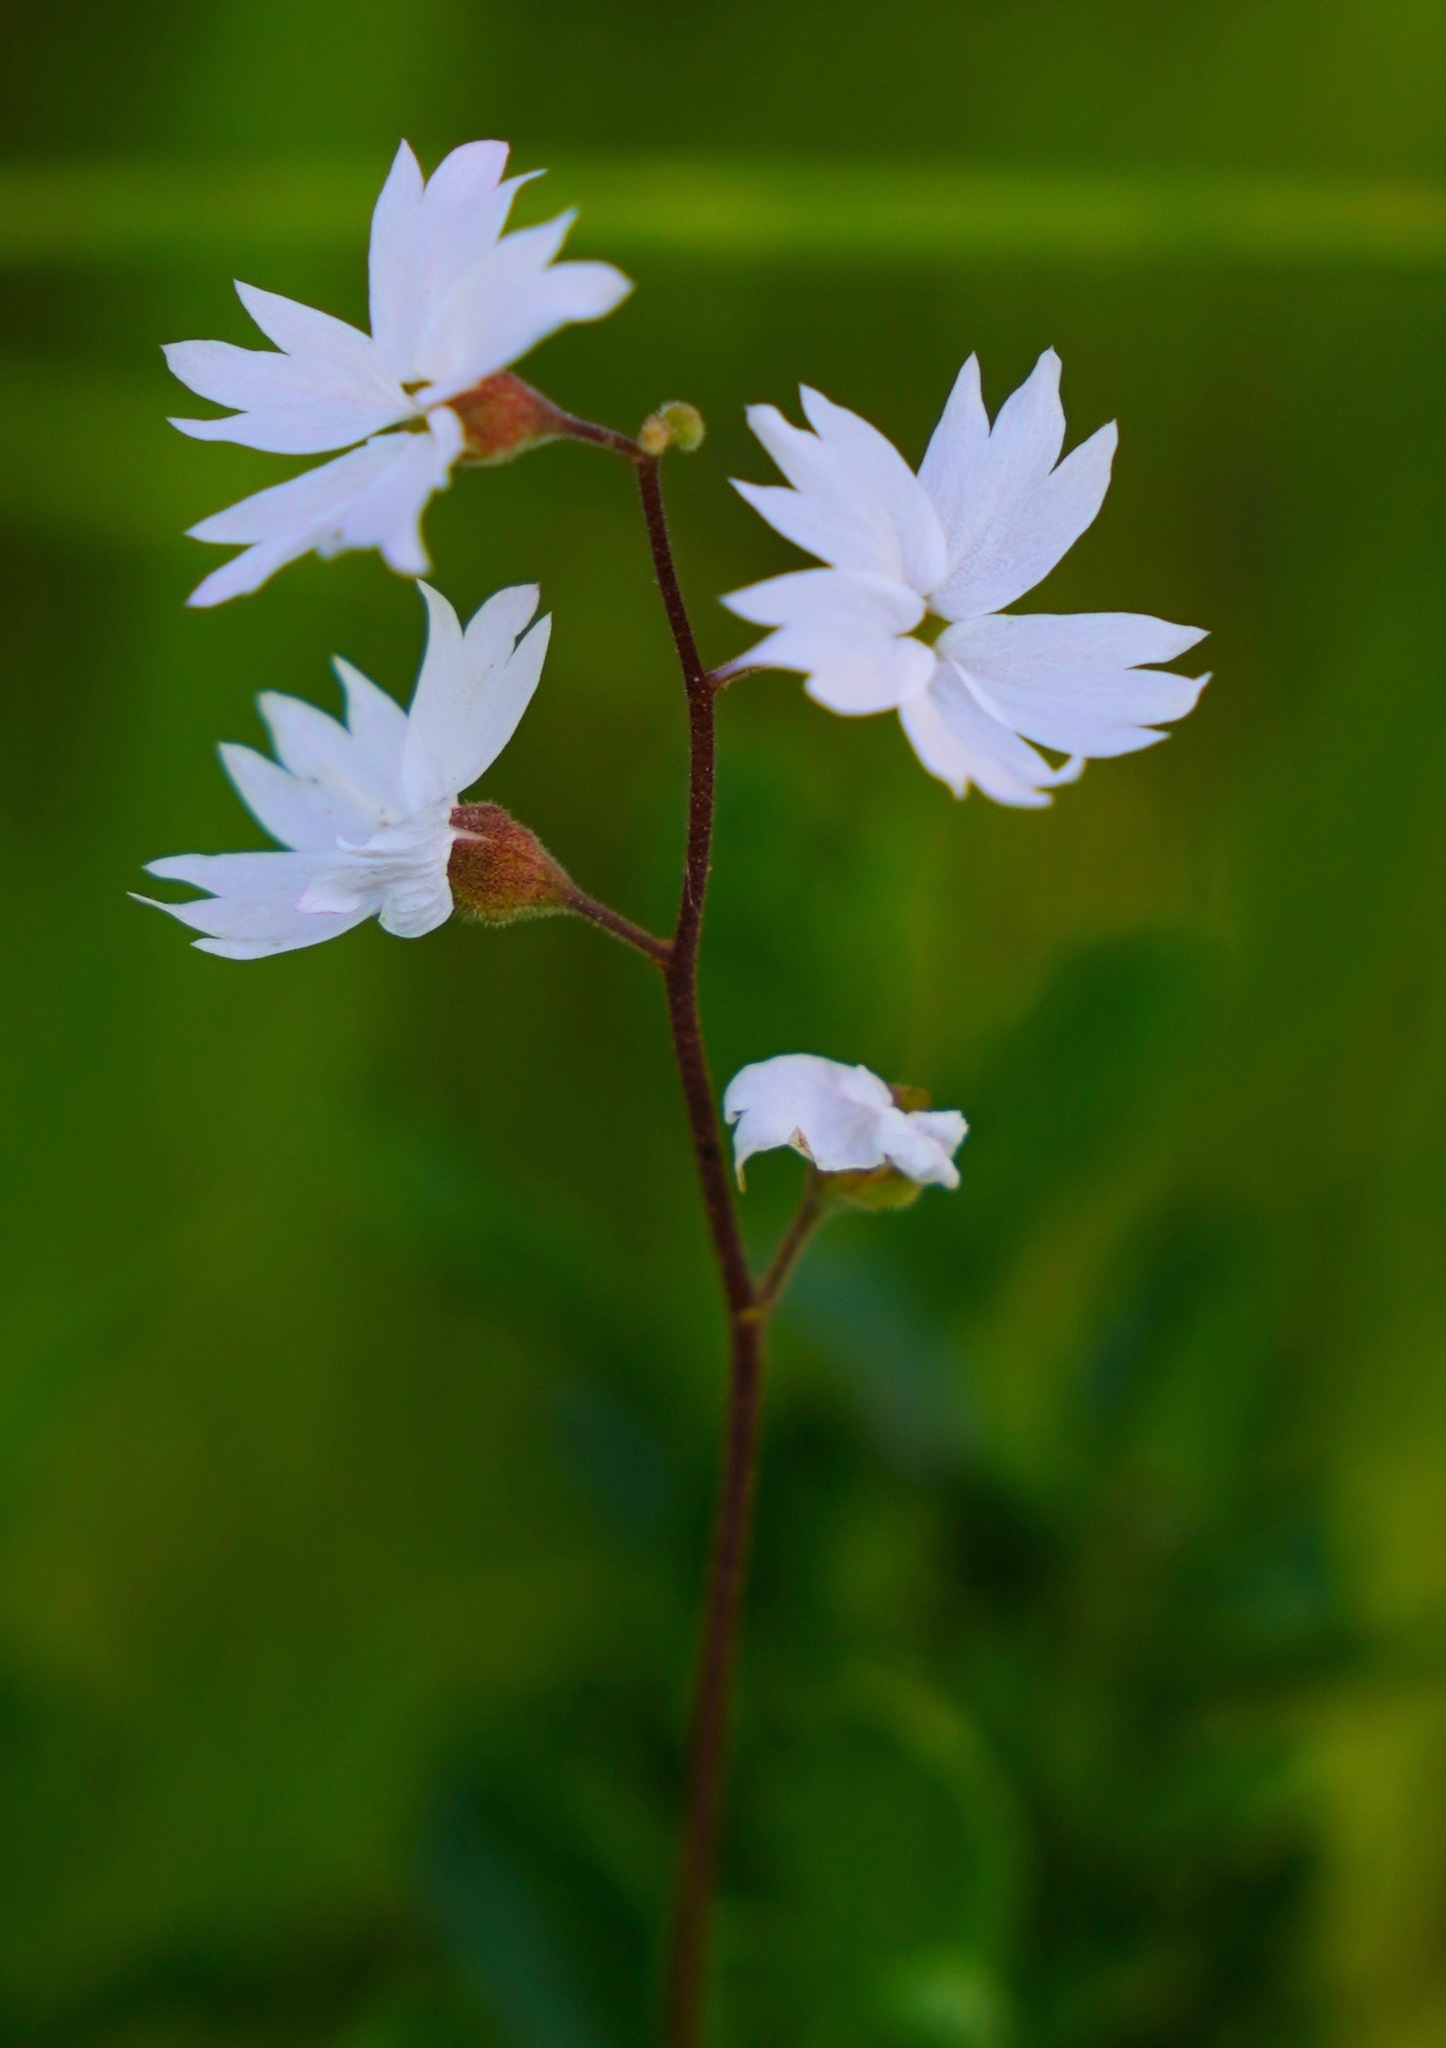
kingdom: Plantae
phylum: Tracheophyta
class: Magnoliopsida
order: Saxifragales
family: Saxifragaceae
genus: Lithophragma
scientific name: Lithophragma affine
